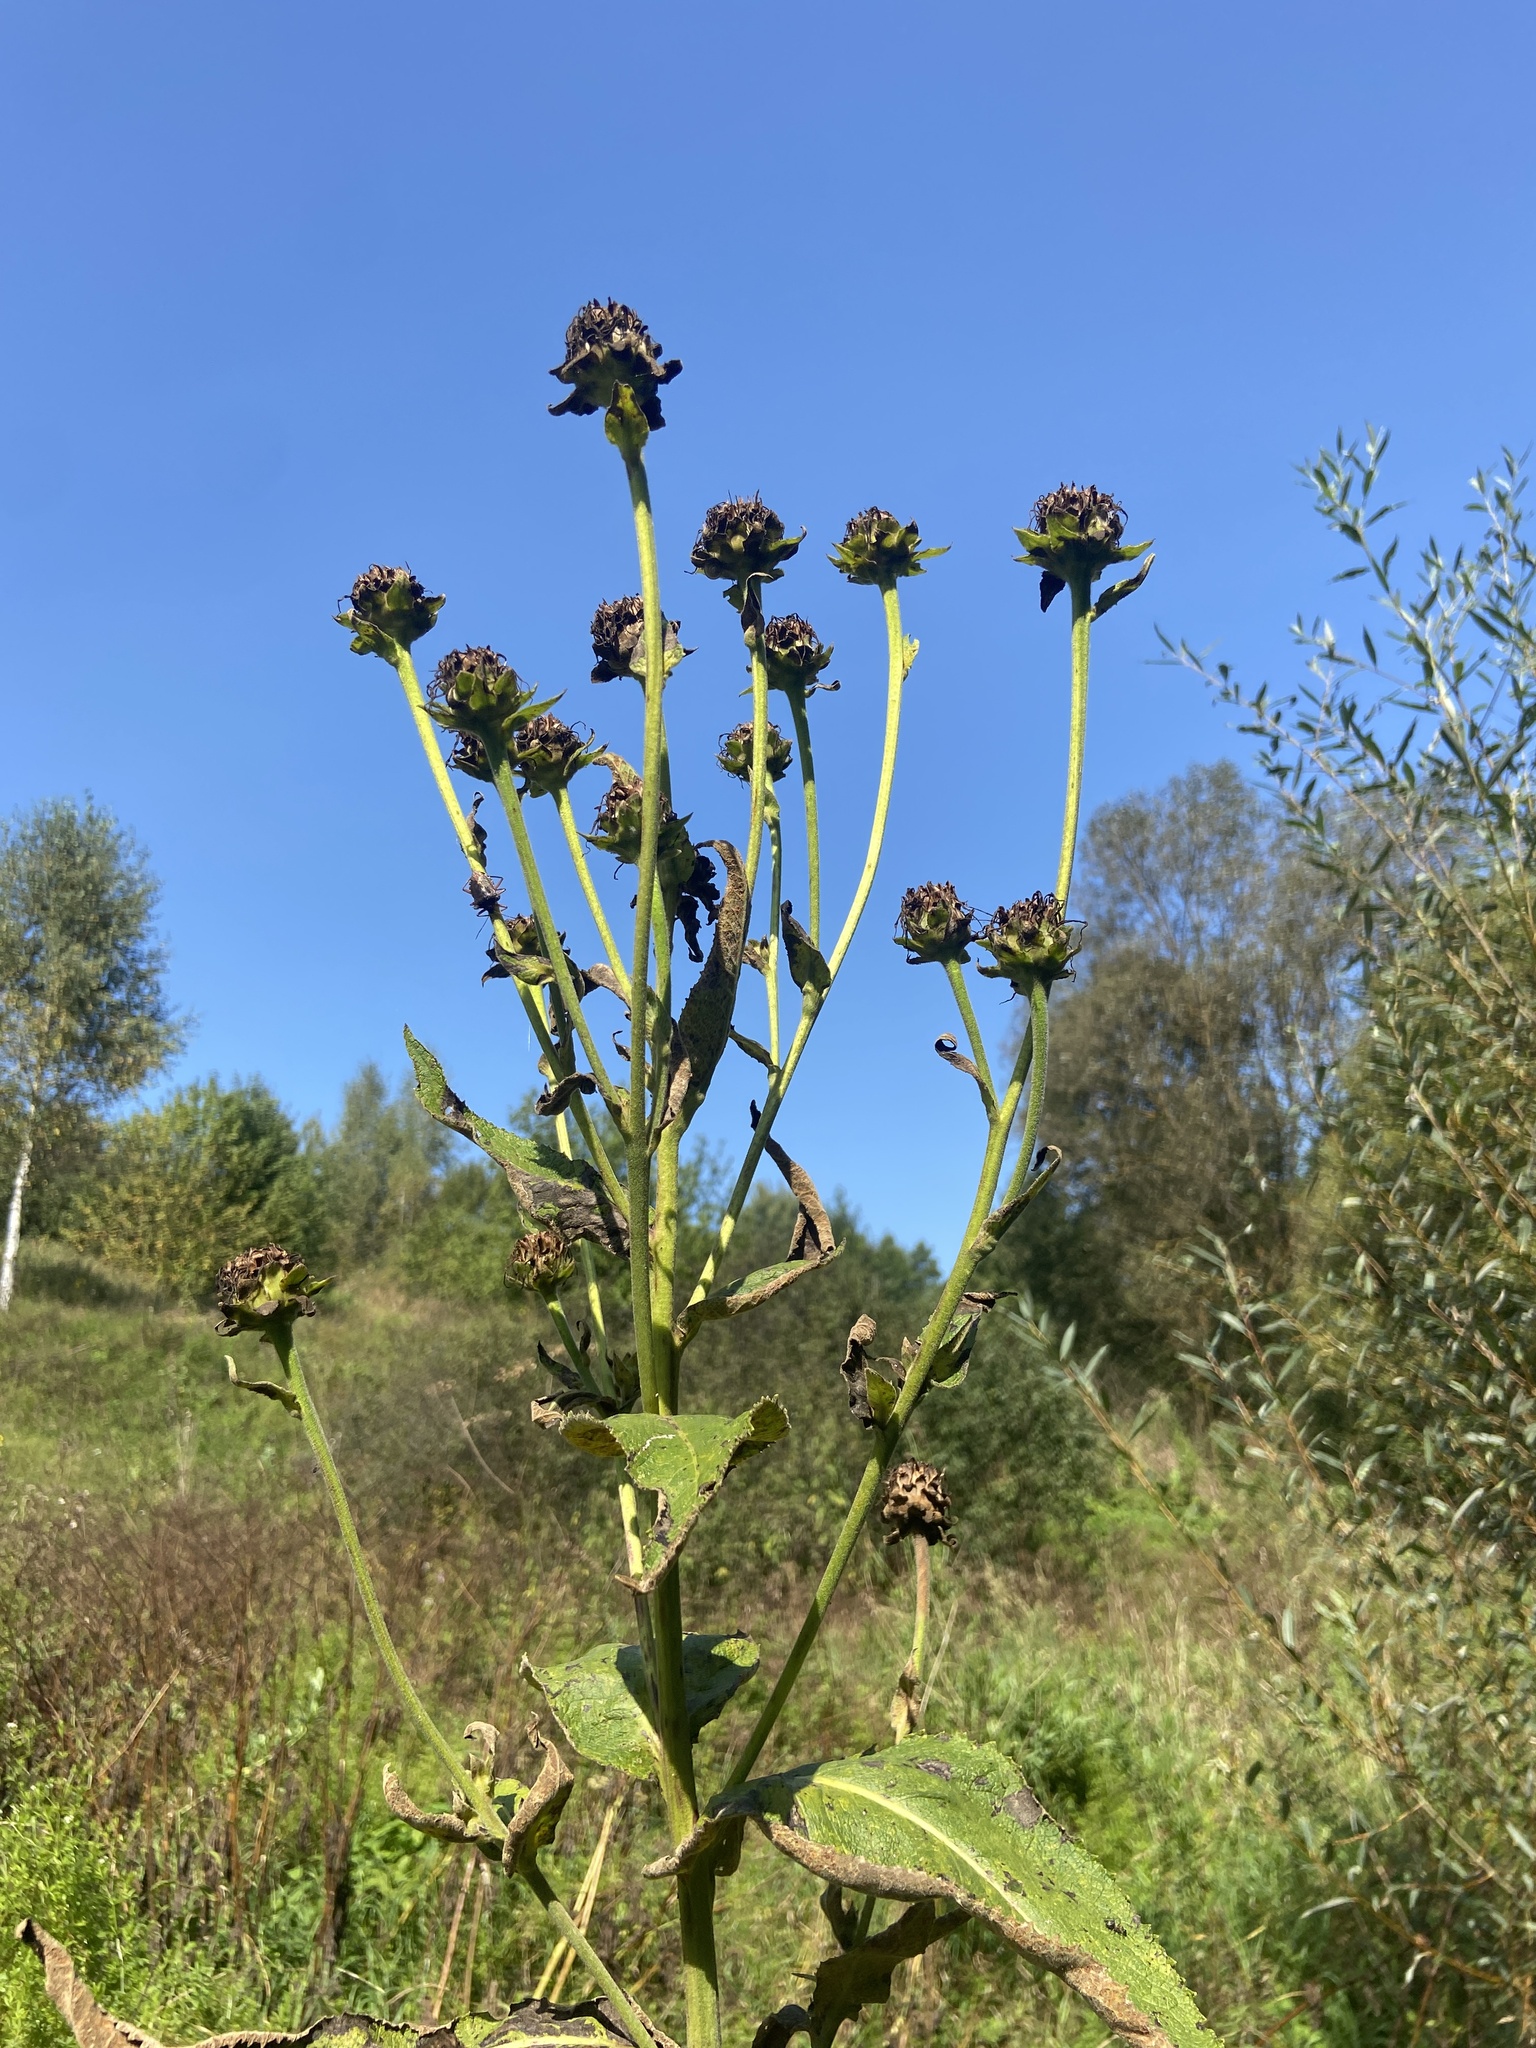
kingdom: Plantae
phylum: Tracheophyta
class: Magnoliopsida
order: Asterales
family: Asteraceae
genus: Inula
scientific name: Inula helenium
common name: Elecampane
